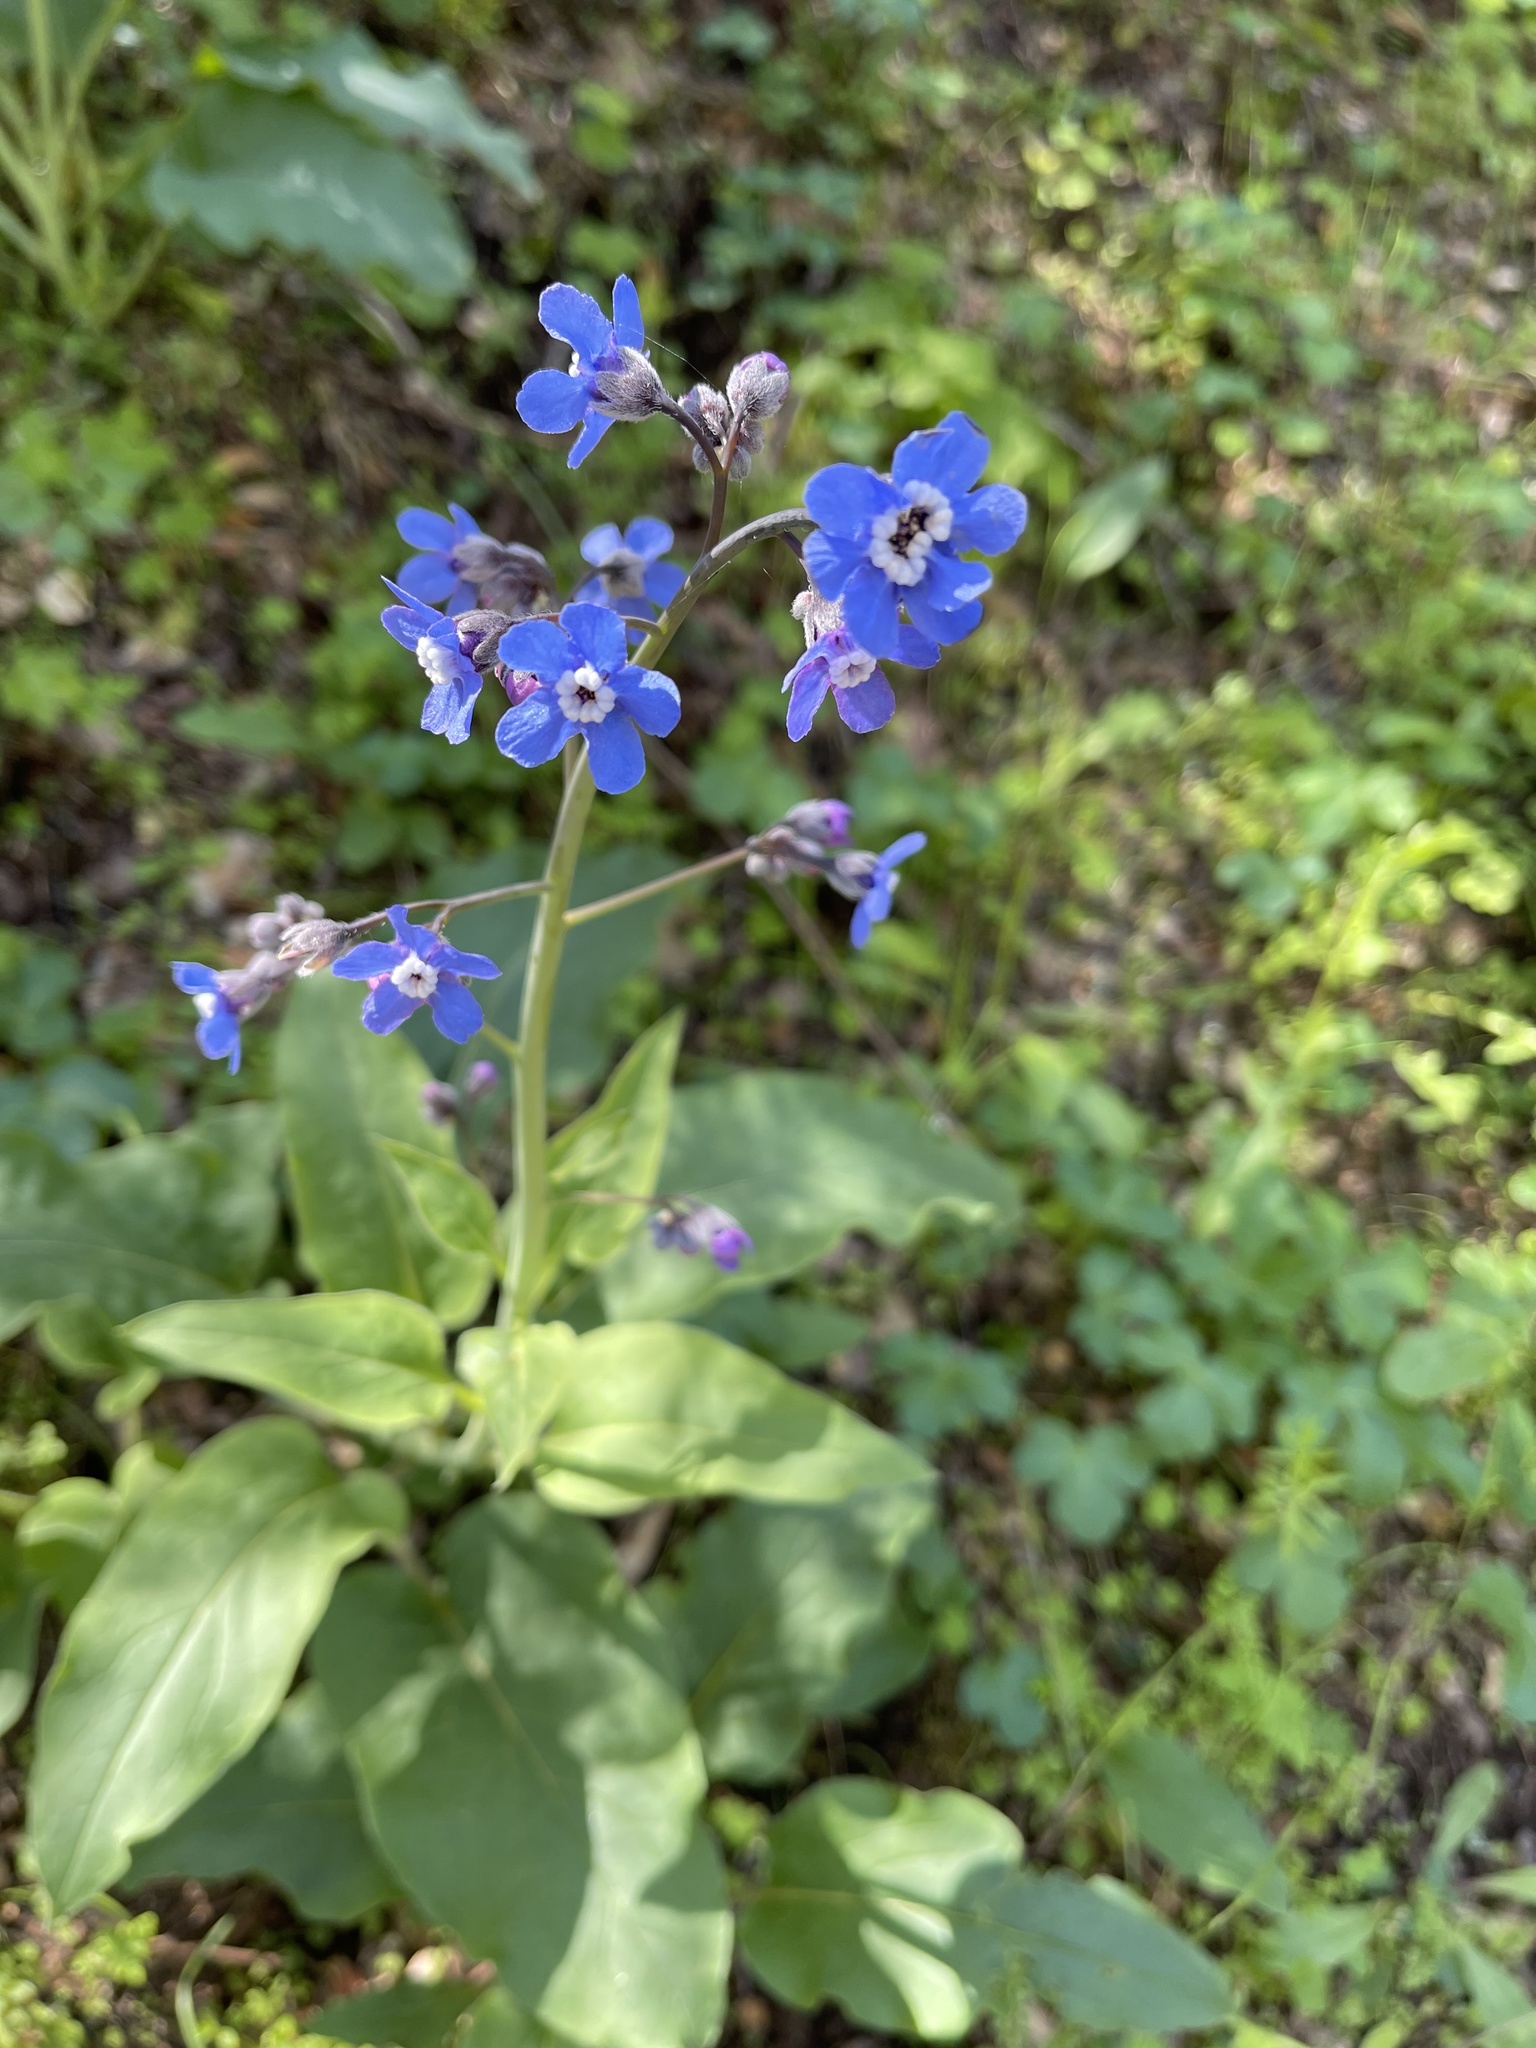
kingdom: Plantae
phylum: Tracheophyta
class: Magnoliopsida
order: Boraginales
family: Boraginaceae
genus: Adelinia
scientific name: Adelinia grande
